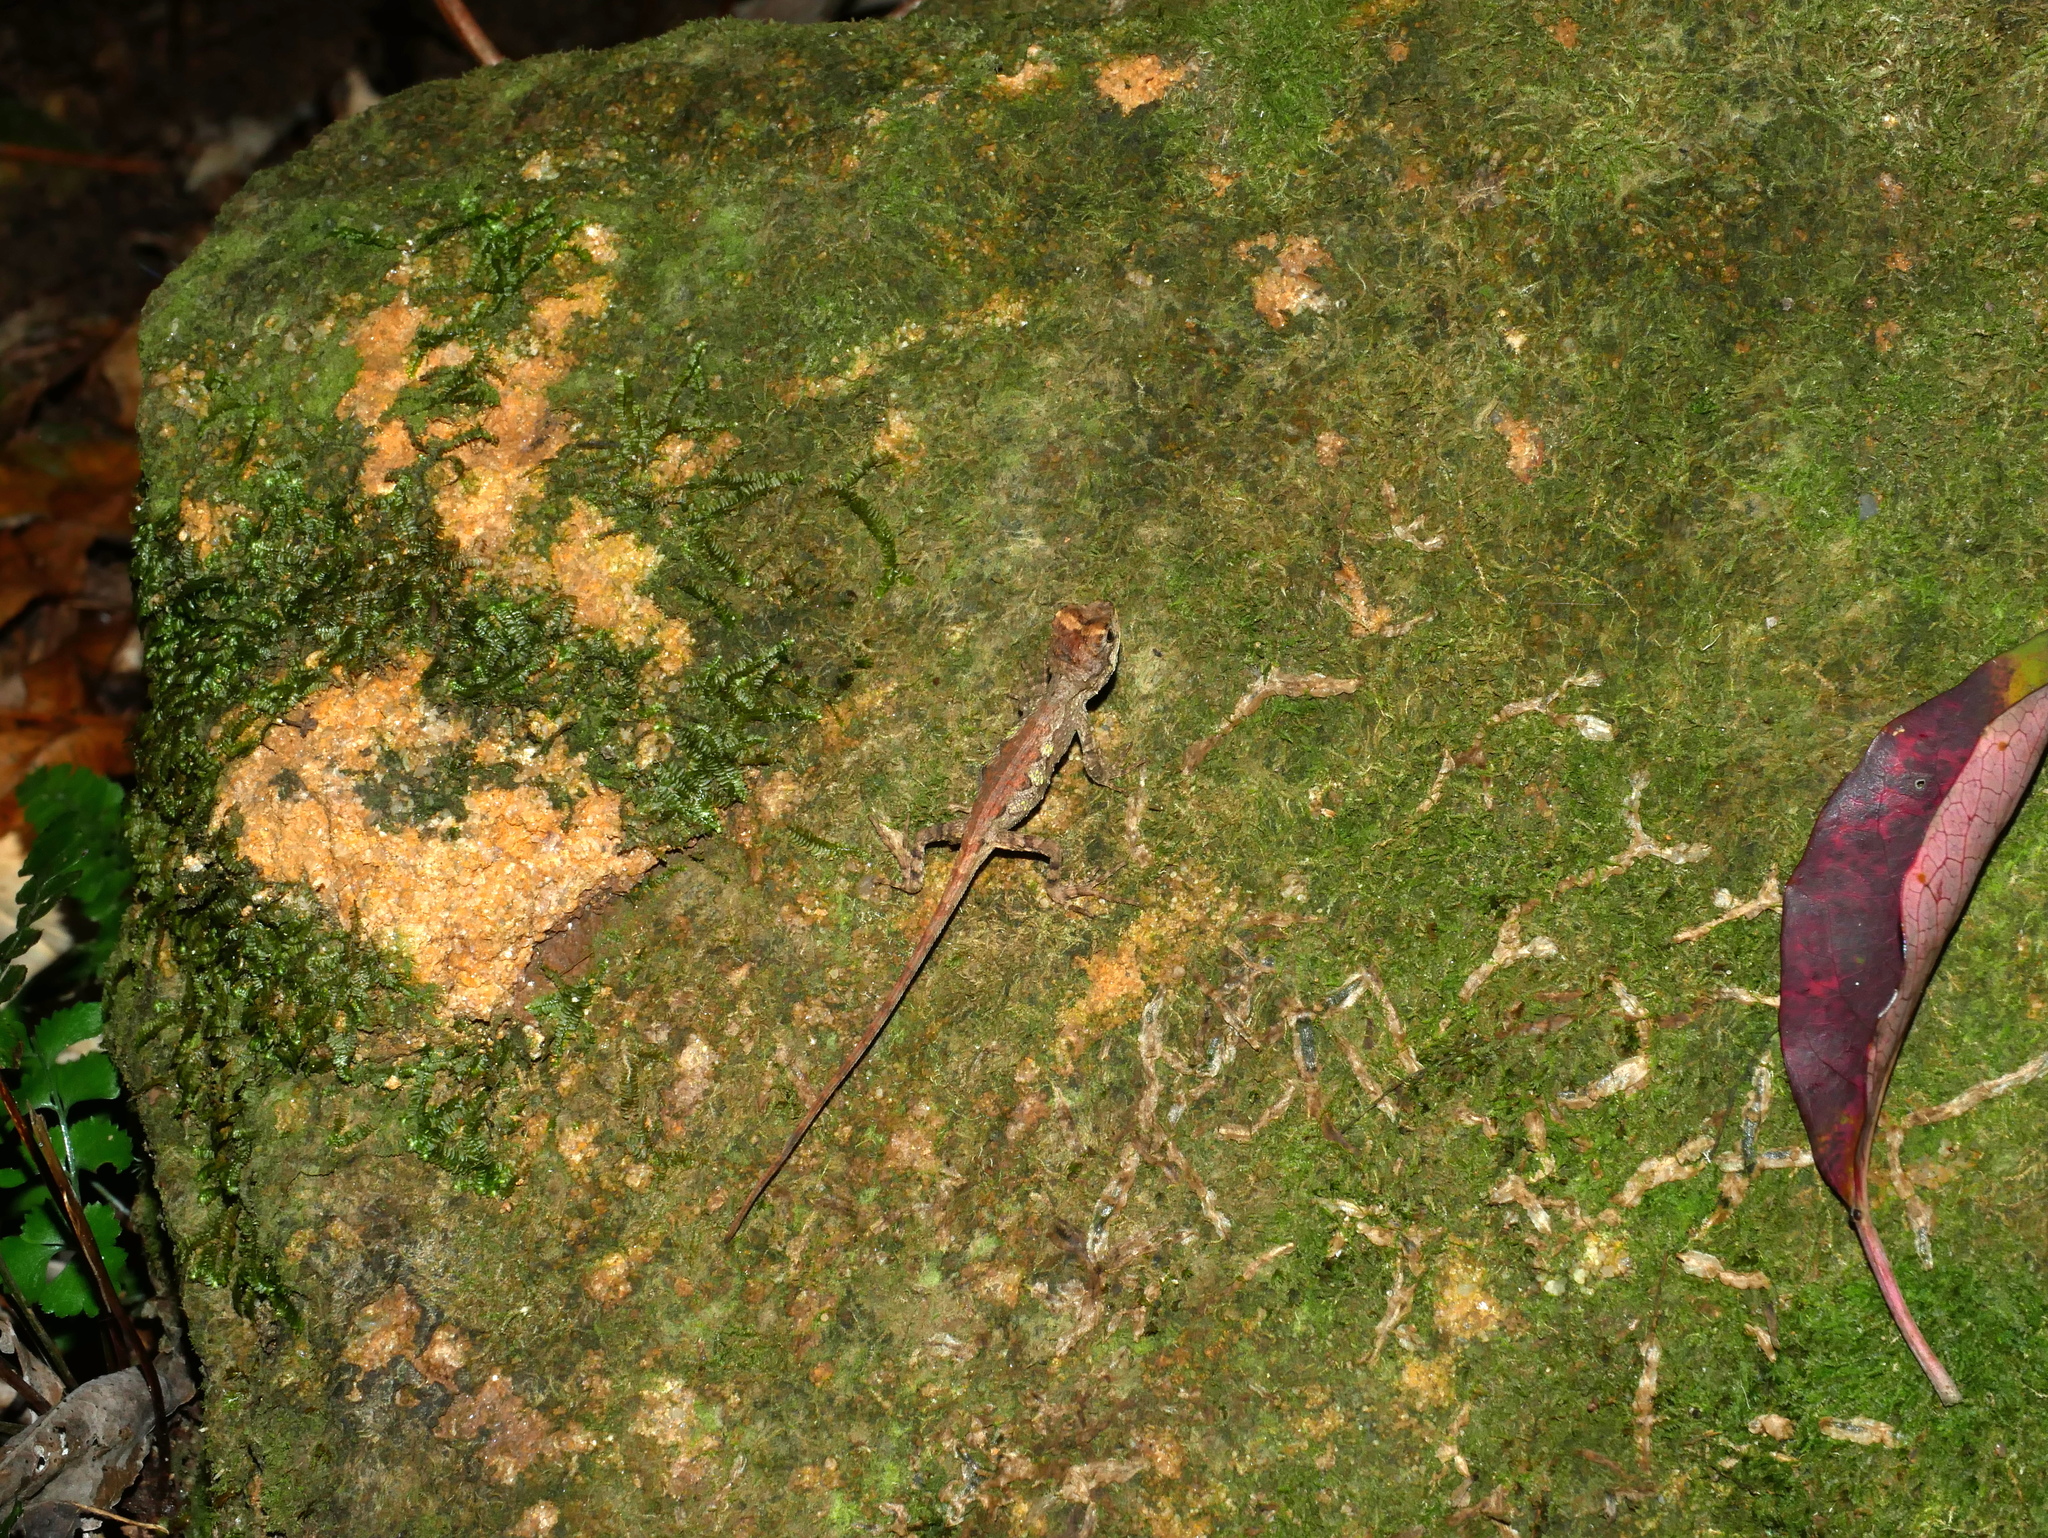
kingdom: Fungi
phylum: Basidiomycota
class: Agaricomycetes
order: Boletales
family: Diplocystidiaceae
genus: Diploderma
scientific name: Diploderma polygonatum
